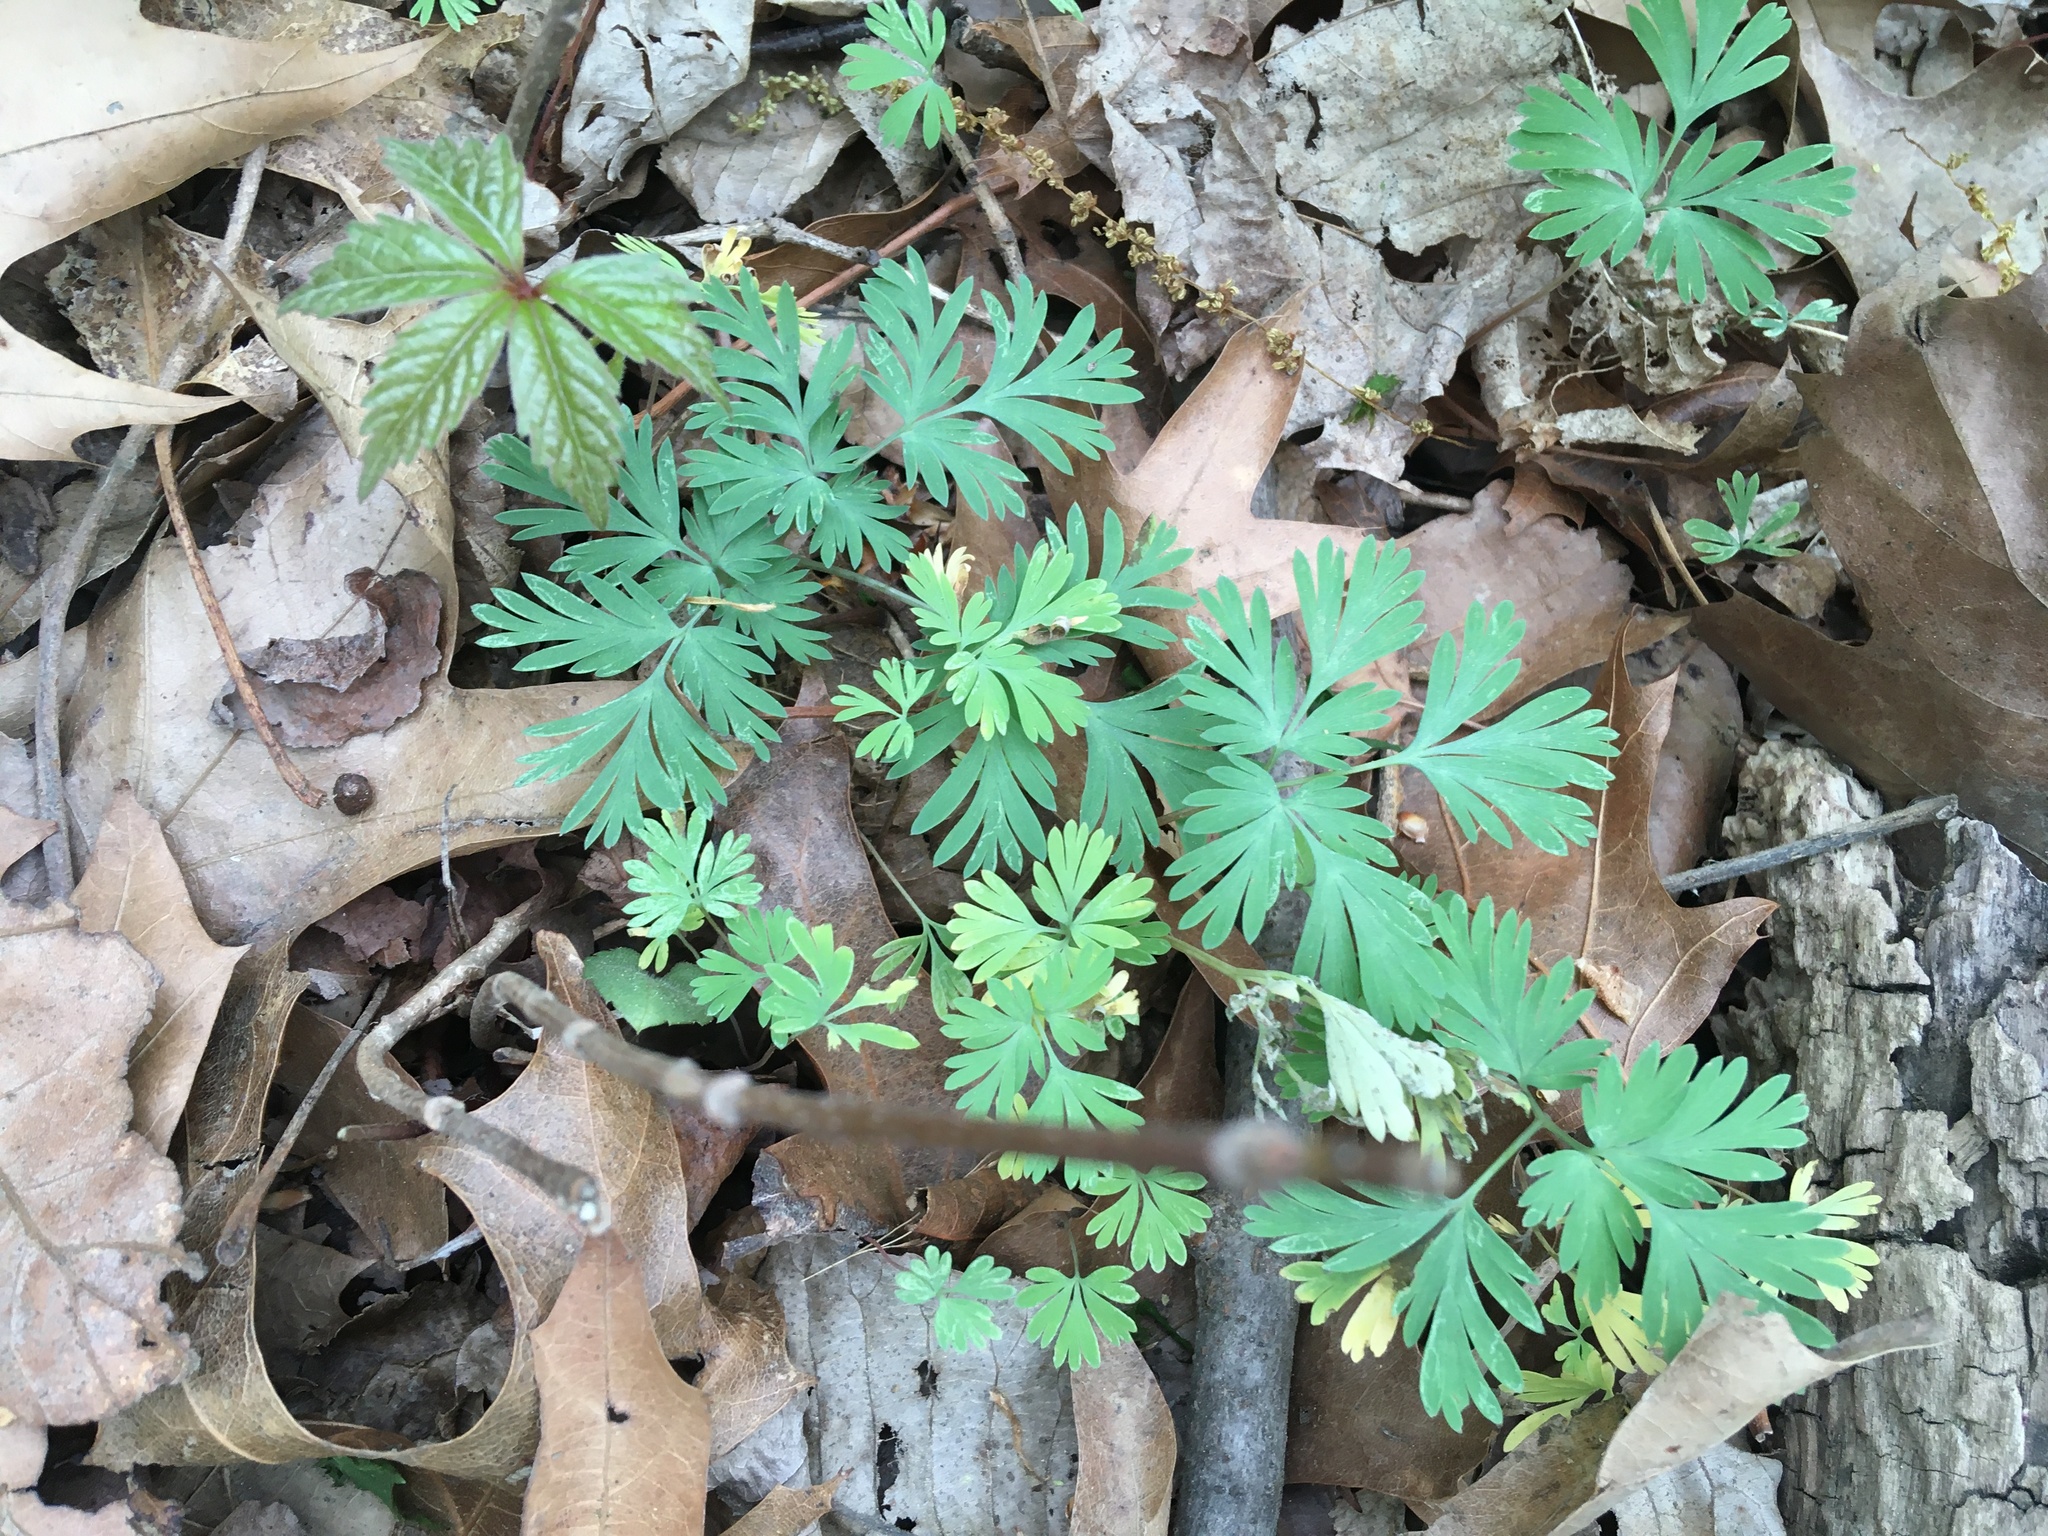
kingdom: Plantae
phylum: Tracheophyta
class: Magnoliopsida
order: Ranunculales
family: Papaveraceae
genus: Dicentra
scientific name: Dicentra cucullaria
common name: Dutchman's breeches
